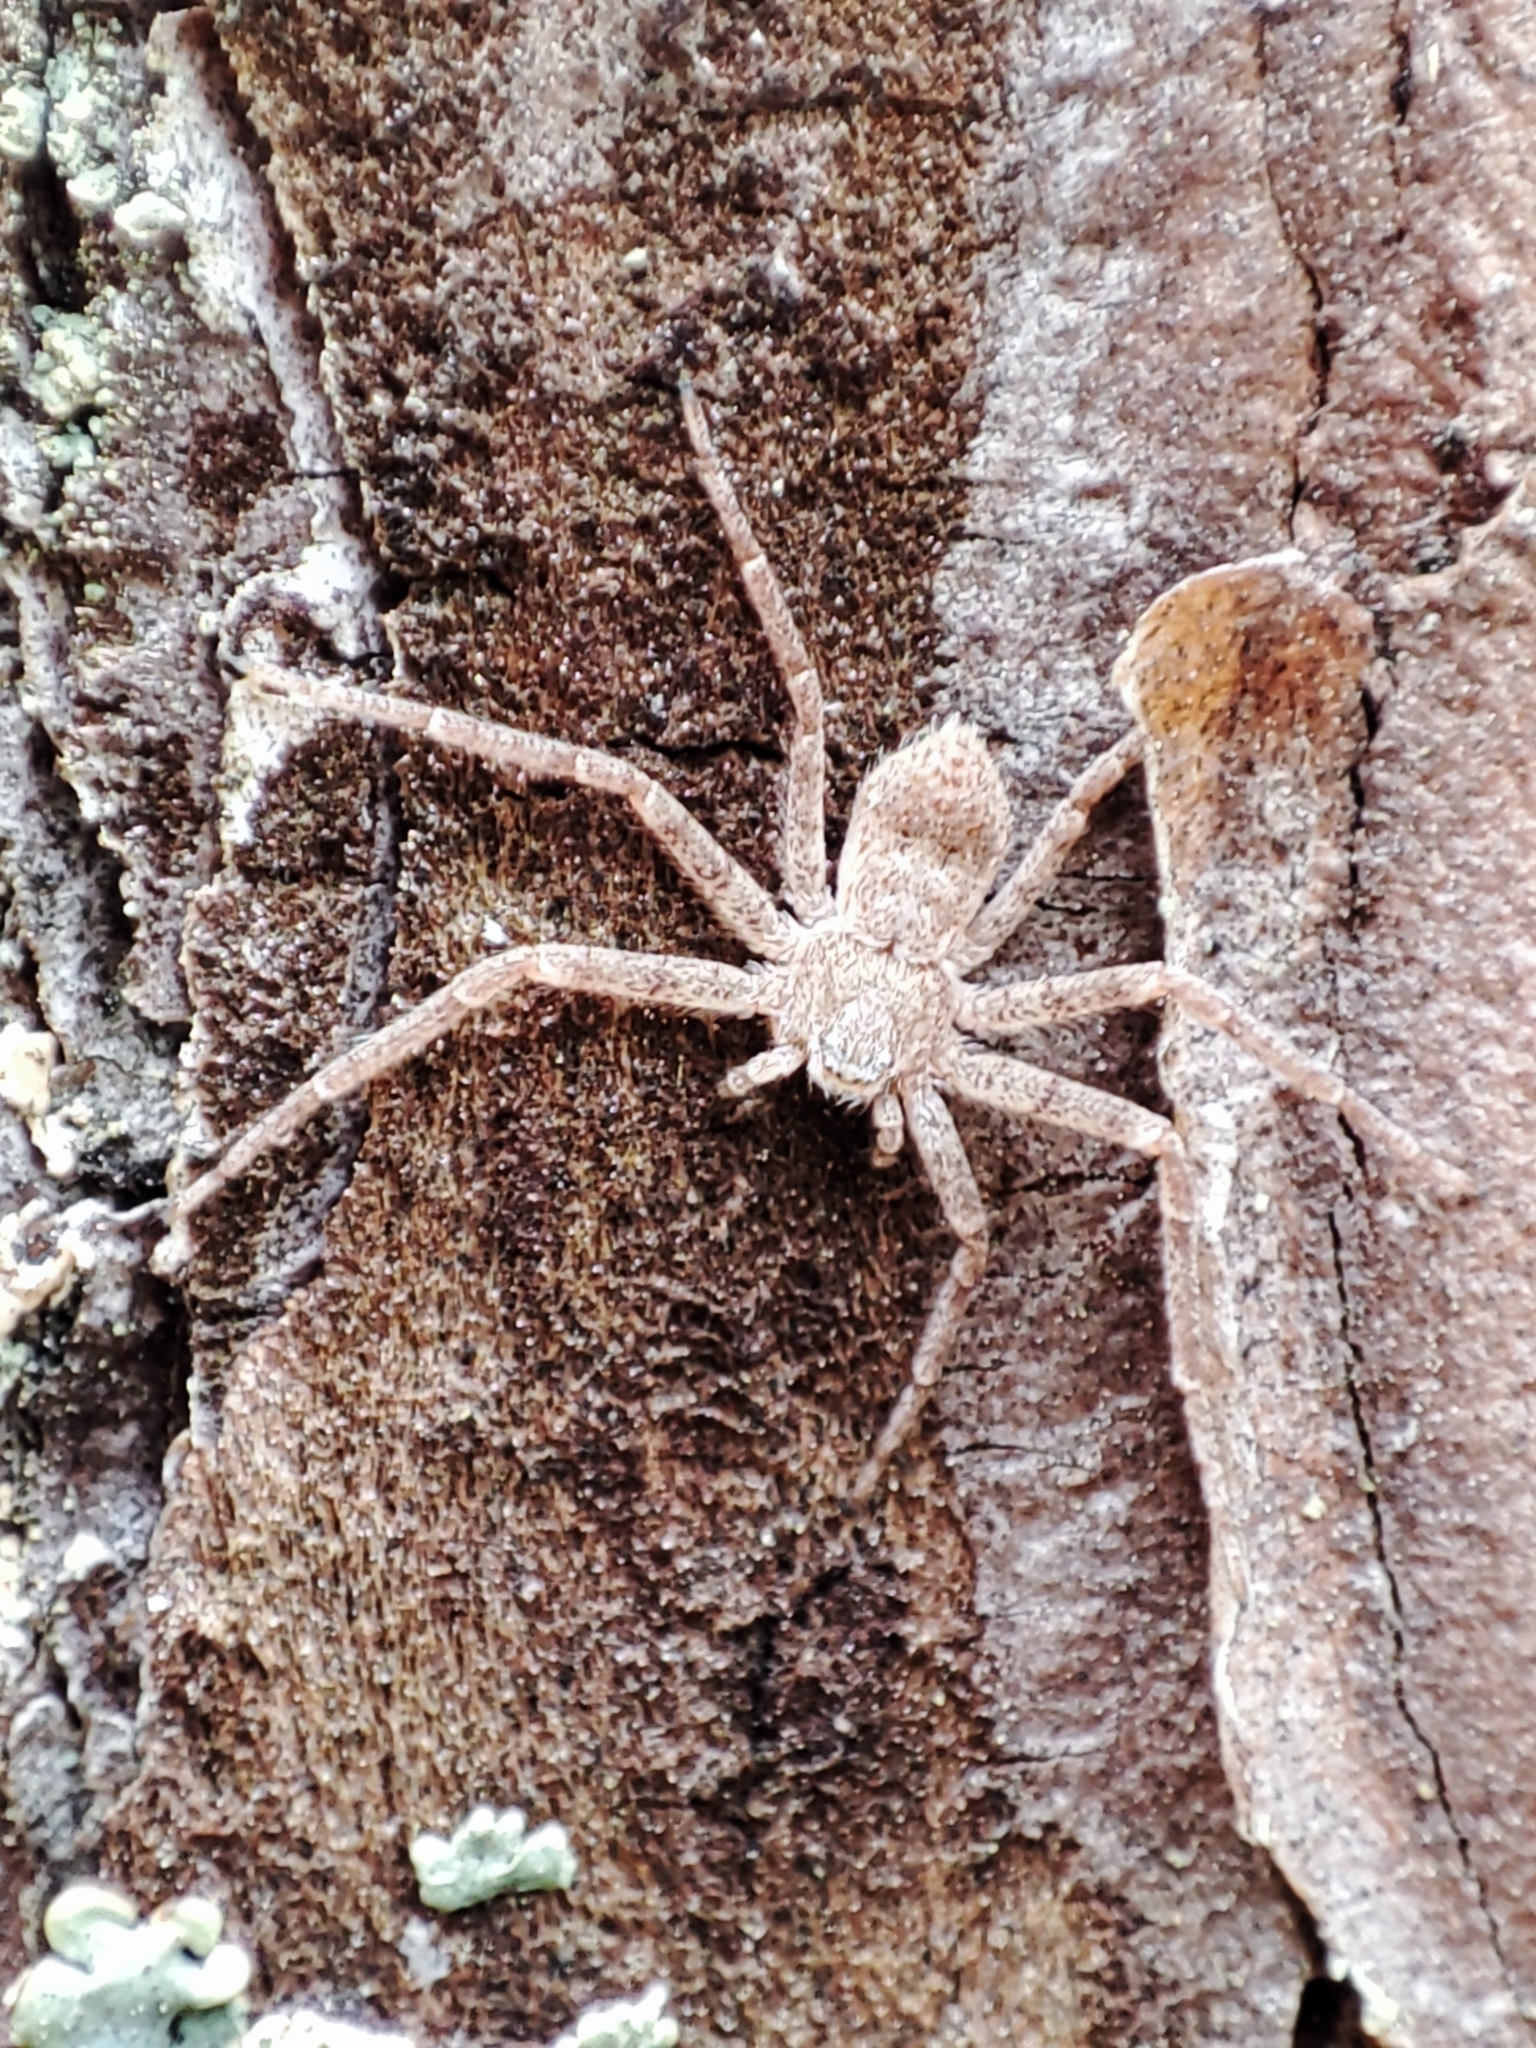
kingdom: Animalia
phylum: Arthropoda
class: Arachnida
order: Araneae
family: Philodromidae
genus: Philodromus
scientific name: Philodromus fuscomarginatus
